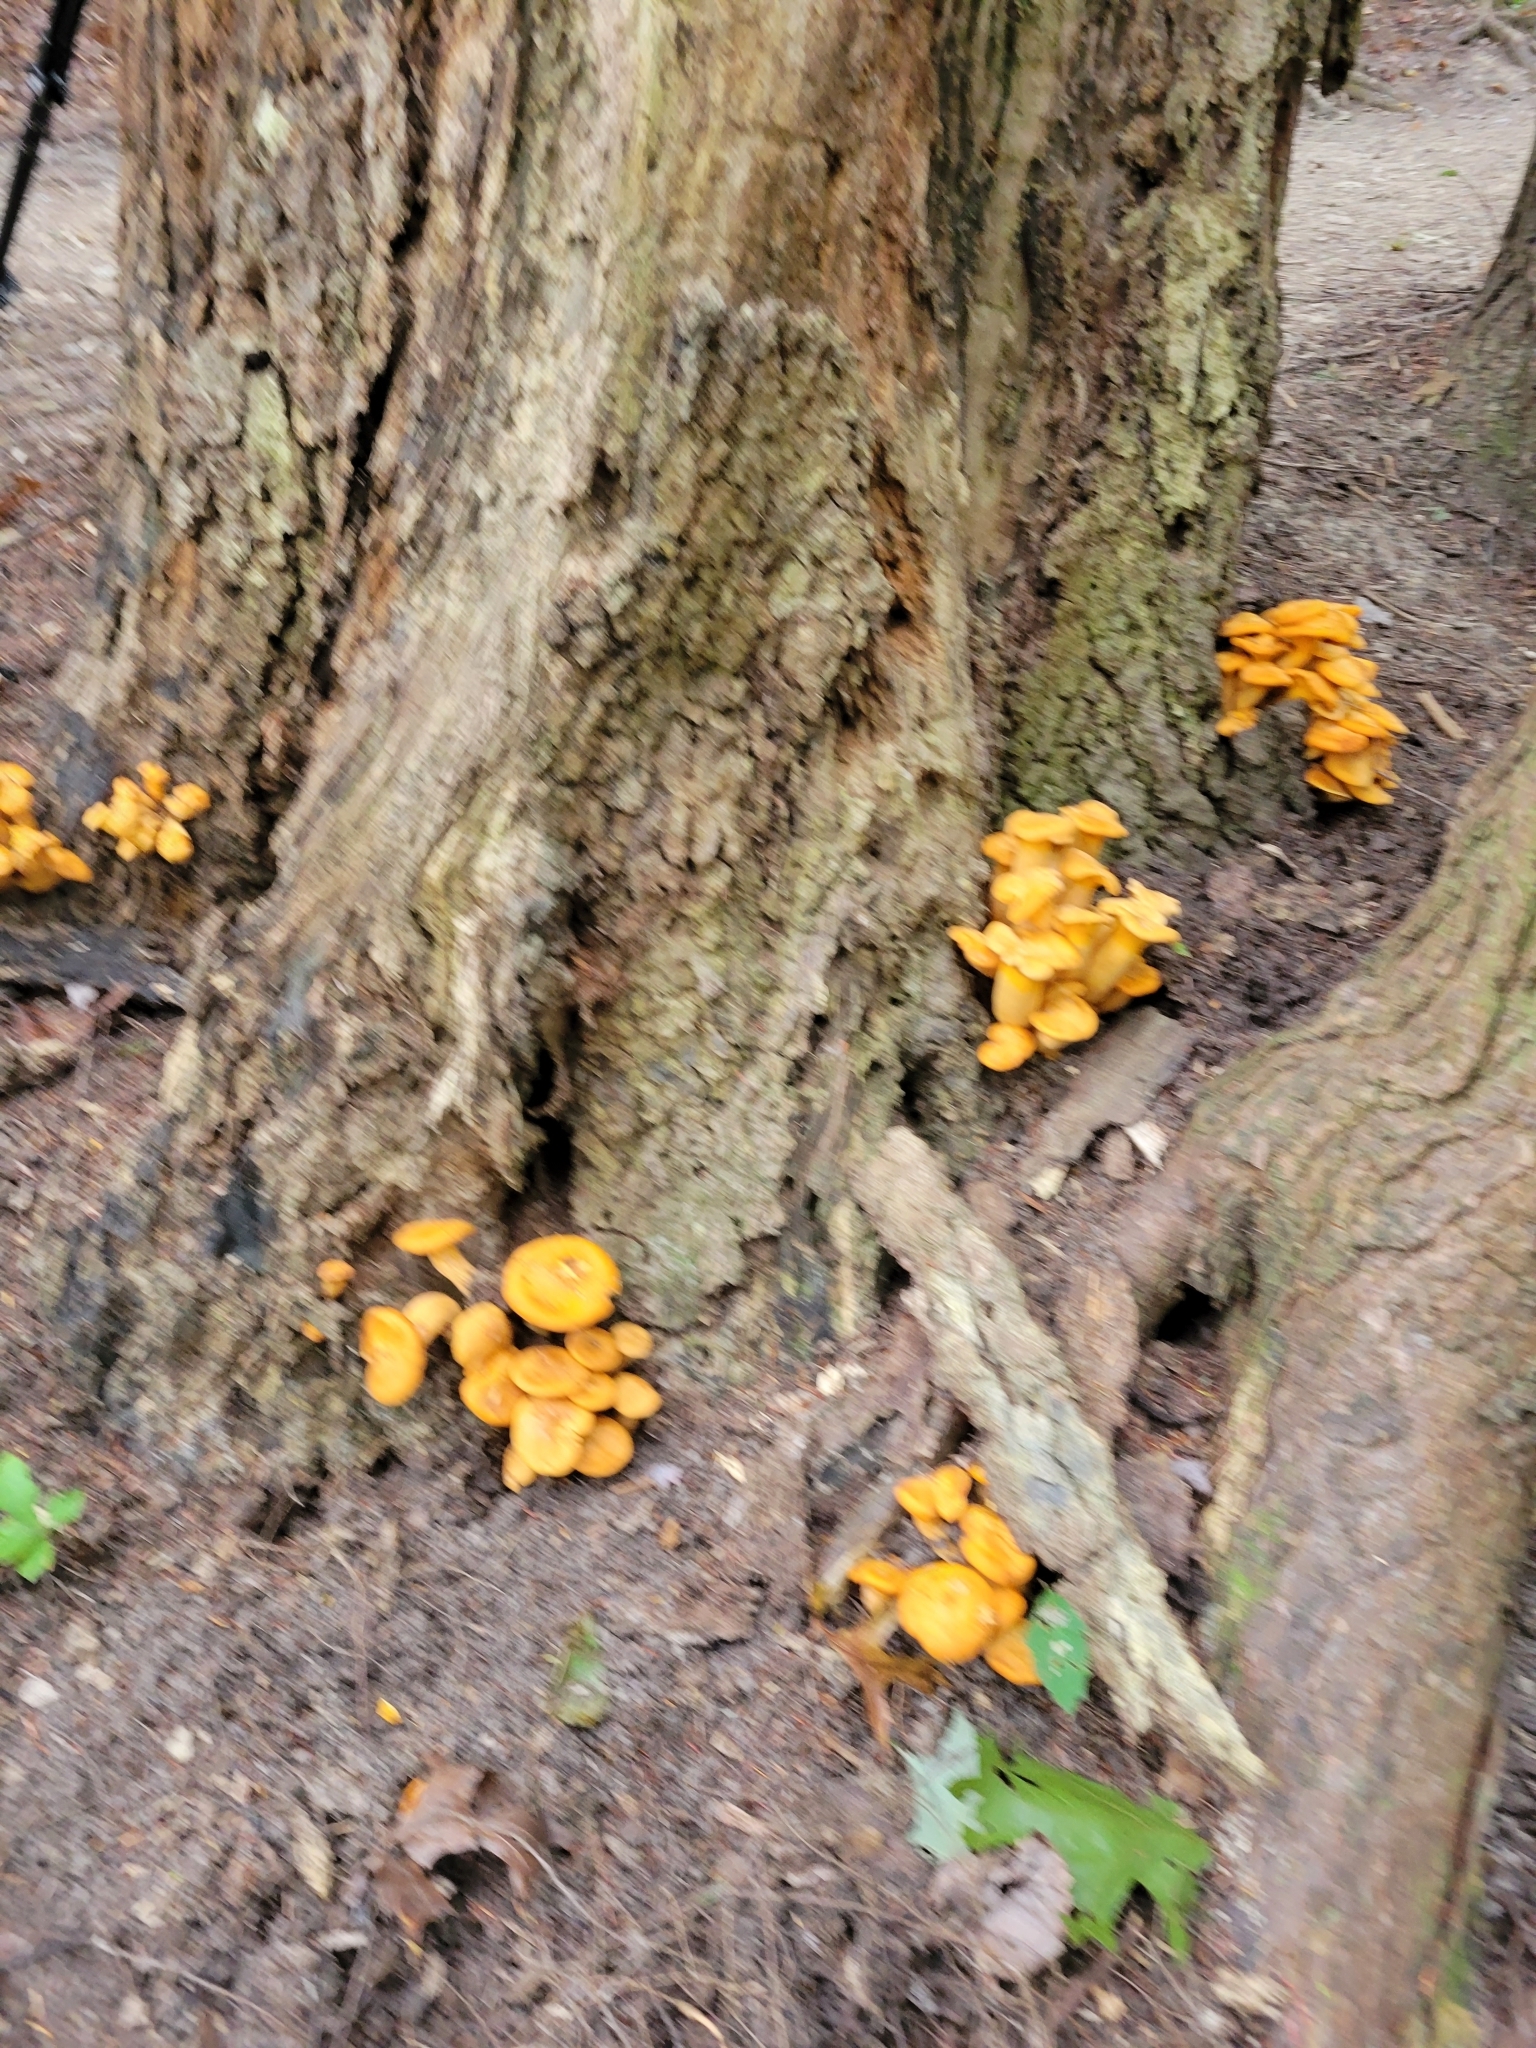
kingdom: Fungi
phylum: Basidiomycota
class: Agaricomycetes
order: Agaricales
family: Omphalotaceae
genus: Omphalotus
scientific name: Omphalotus illudens
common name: Jack o lantern
